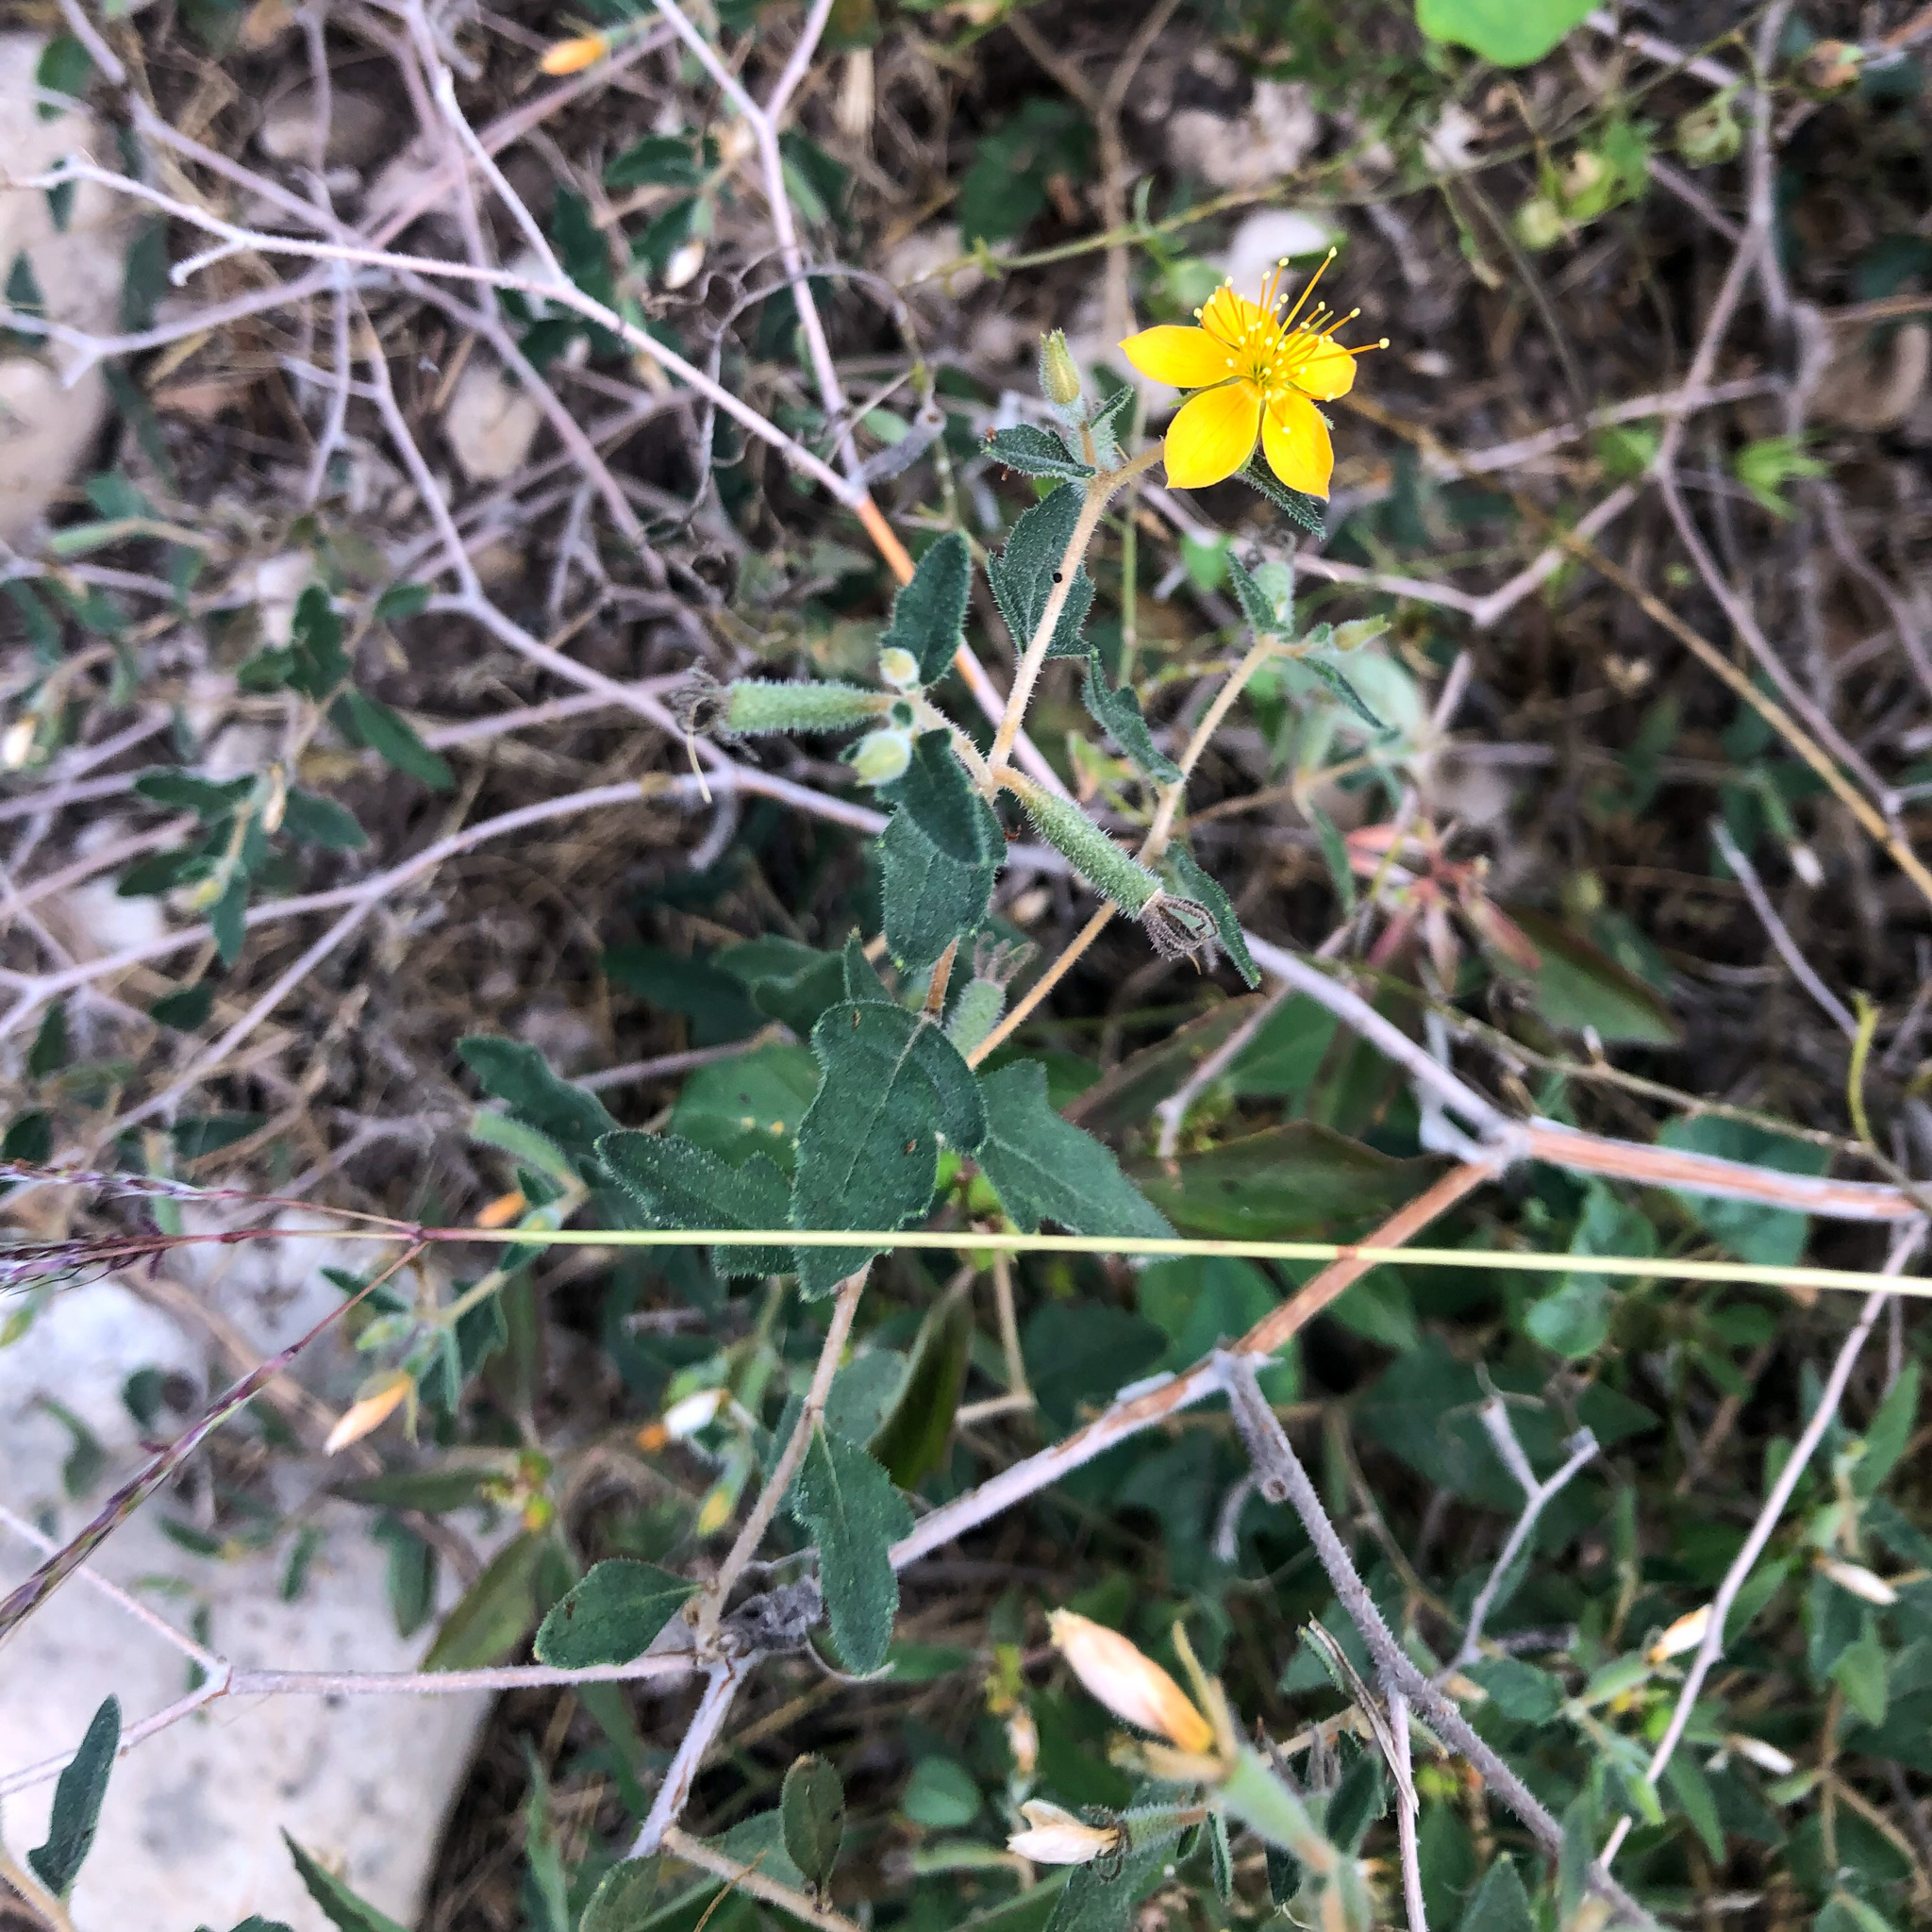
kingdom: Plantae
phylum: Tracheophyta
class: Magnoliopsida
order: Cornales
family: Loasaceae
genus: Mentzelia
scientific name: Mentzelia oligosperma
